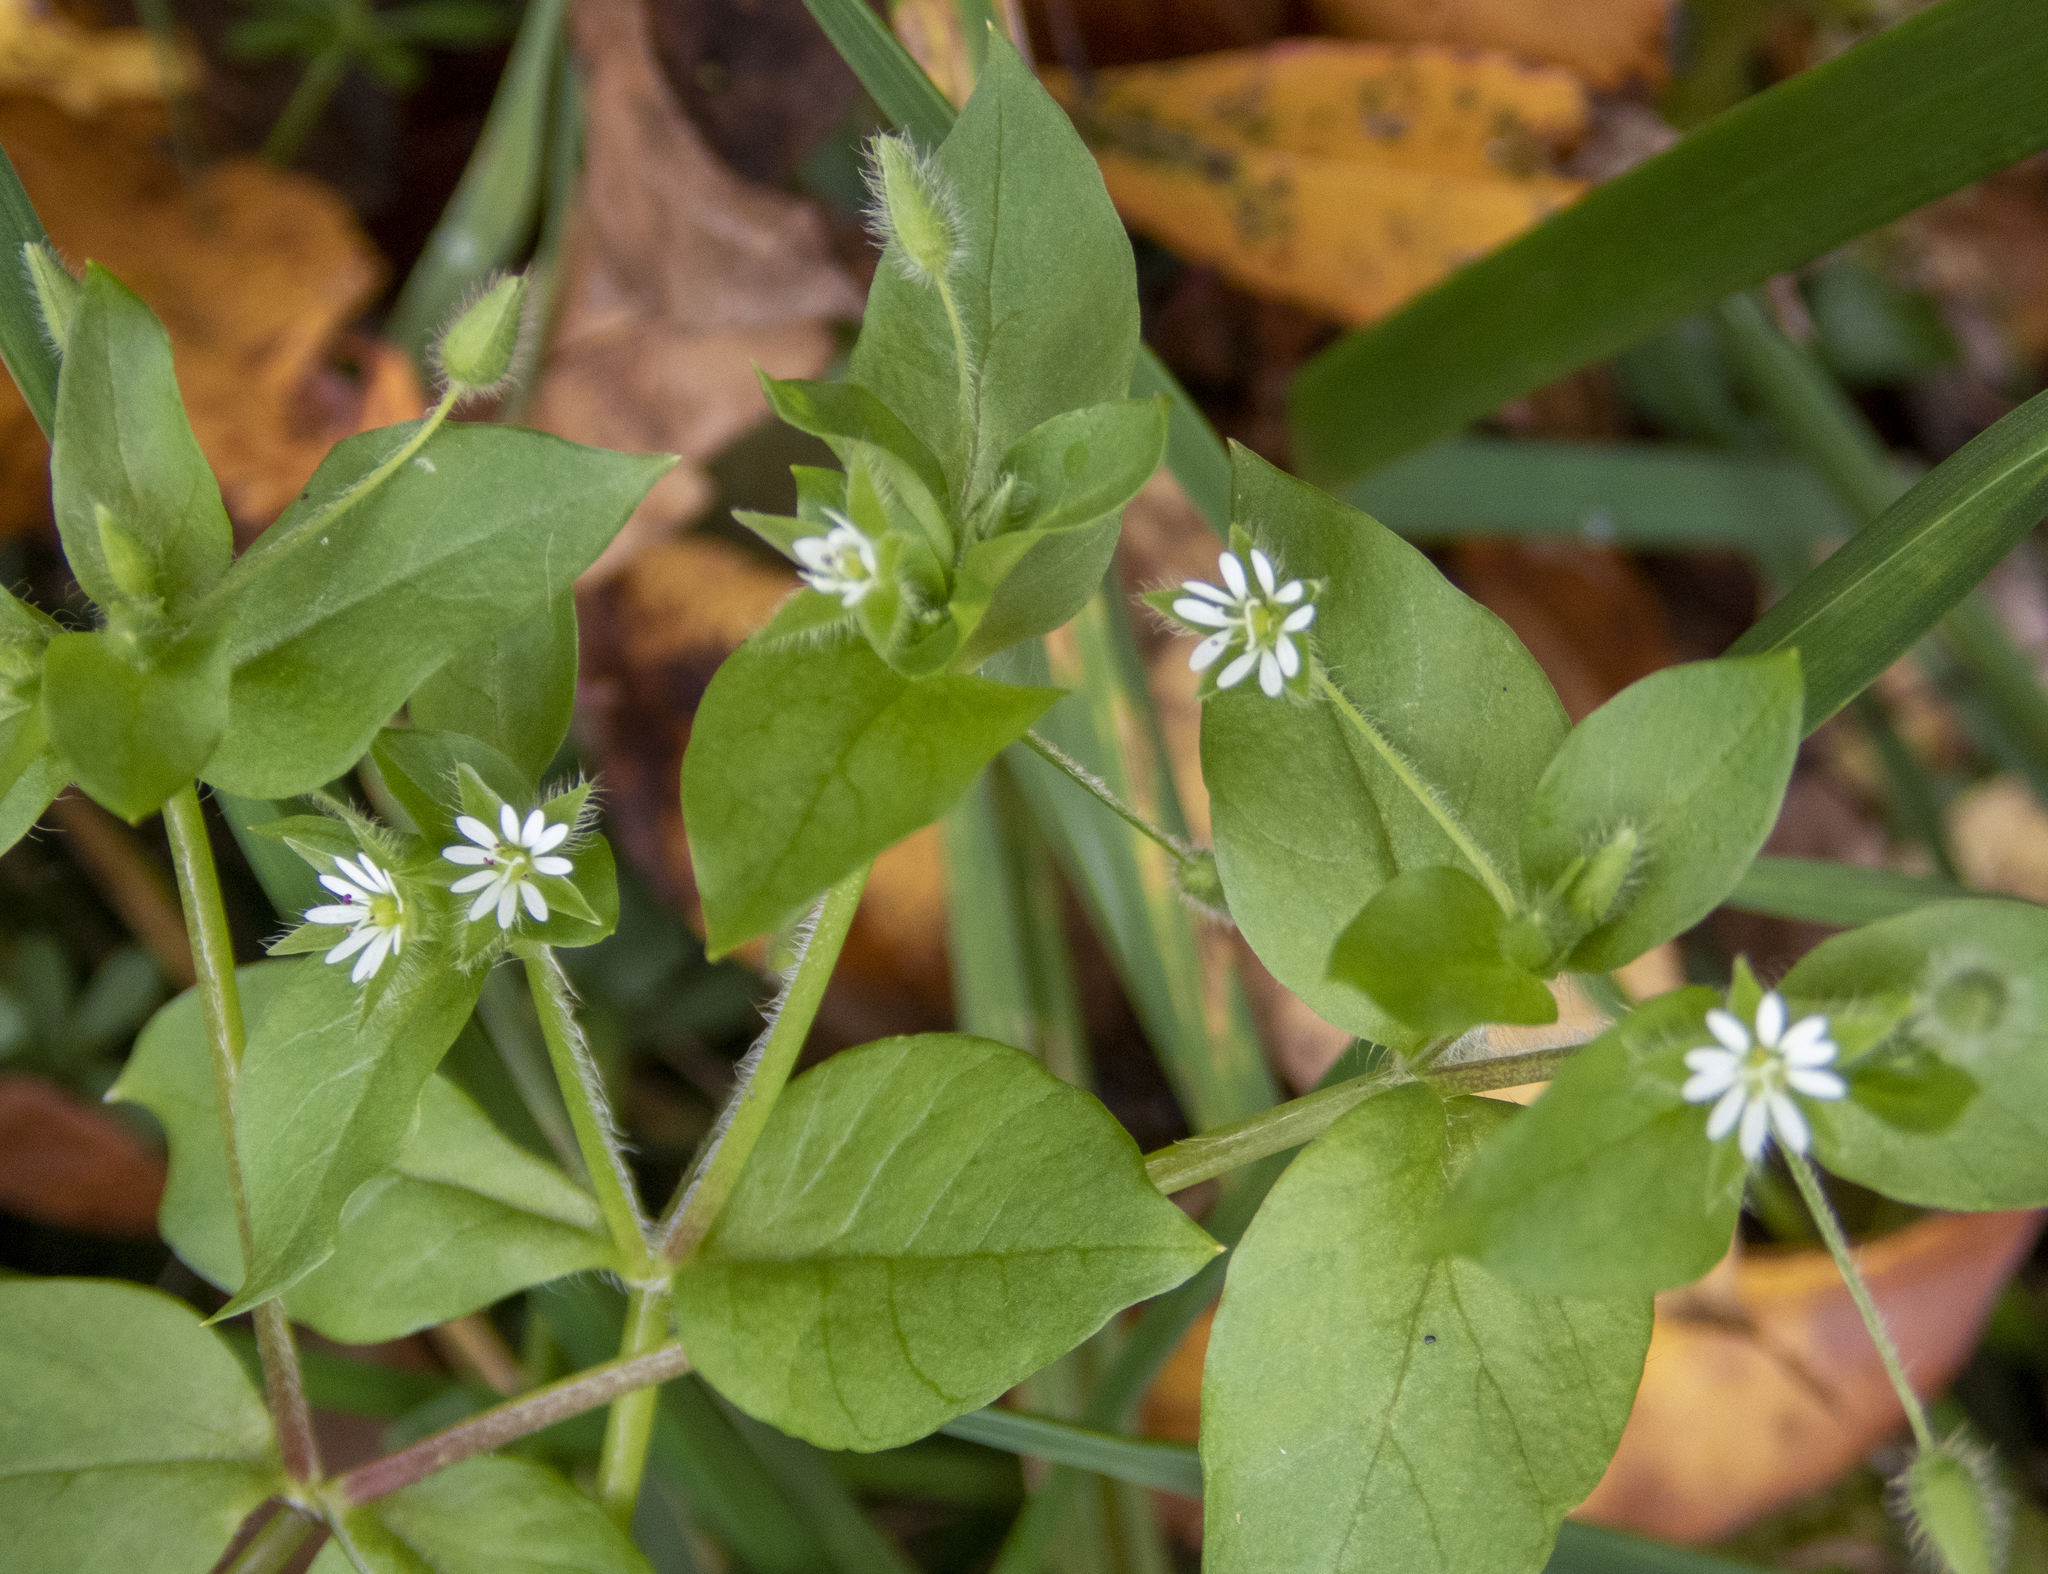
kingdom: Plantae
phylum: Tracheophyta
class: Magnoliopsida
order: Caryophyllales
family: Caryophyllaceae
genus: Stellaria
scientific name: Stellaria media
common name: Common chickweed
